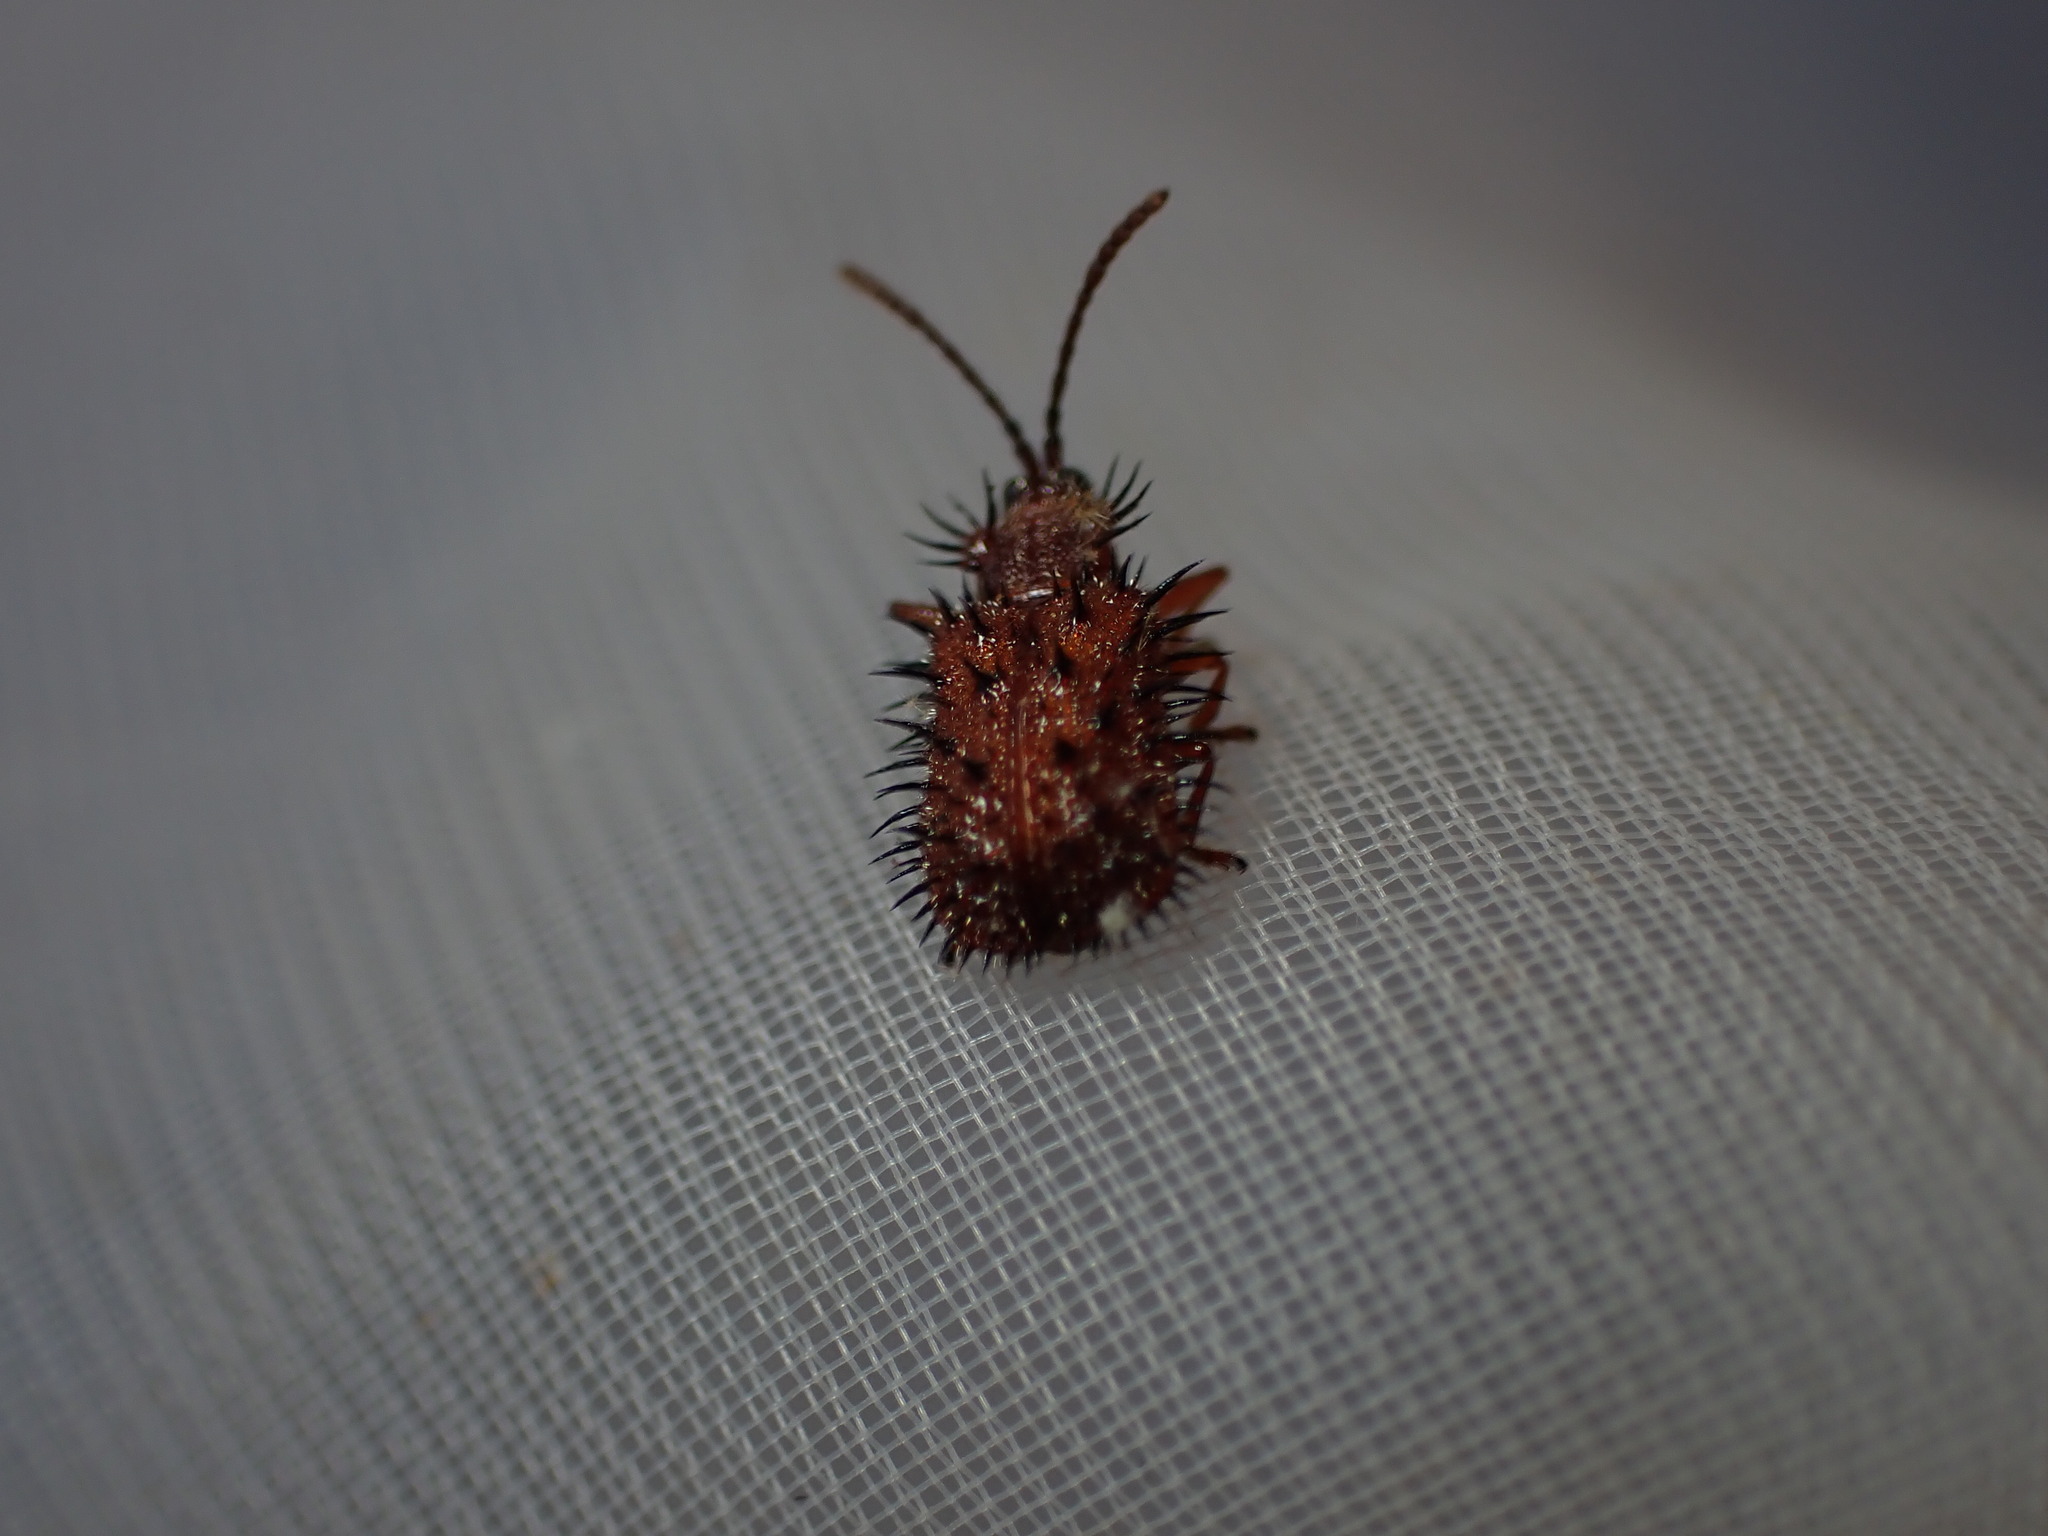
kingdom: Animalia
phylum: Arthropoda
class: Insecta
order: Coleoptera
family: Chrysomelidae
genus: Dicladispa
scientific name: Dicladispa testacea
